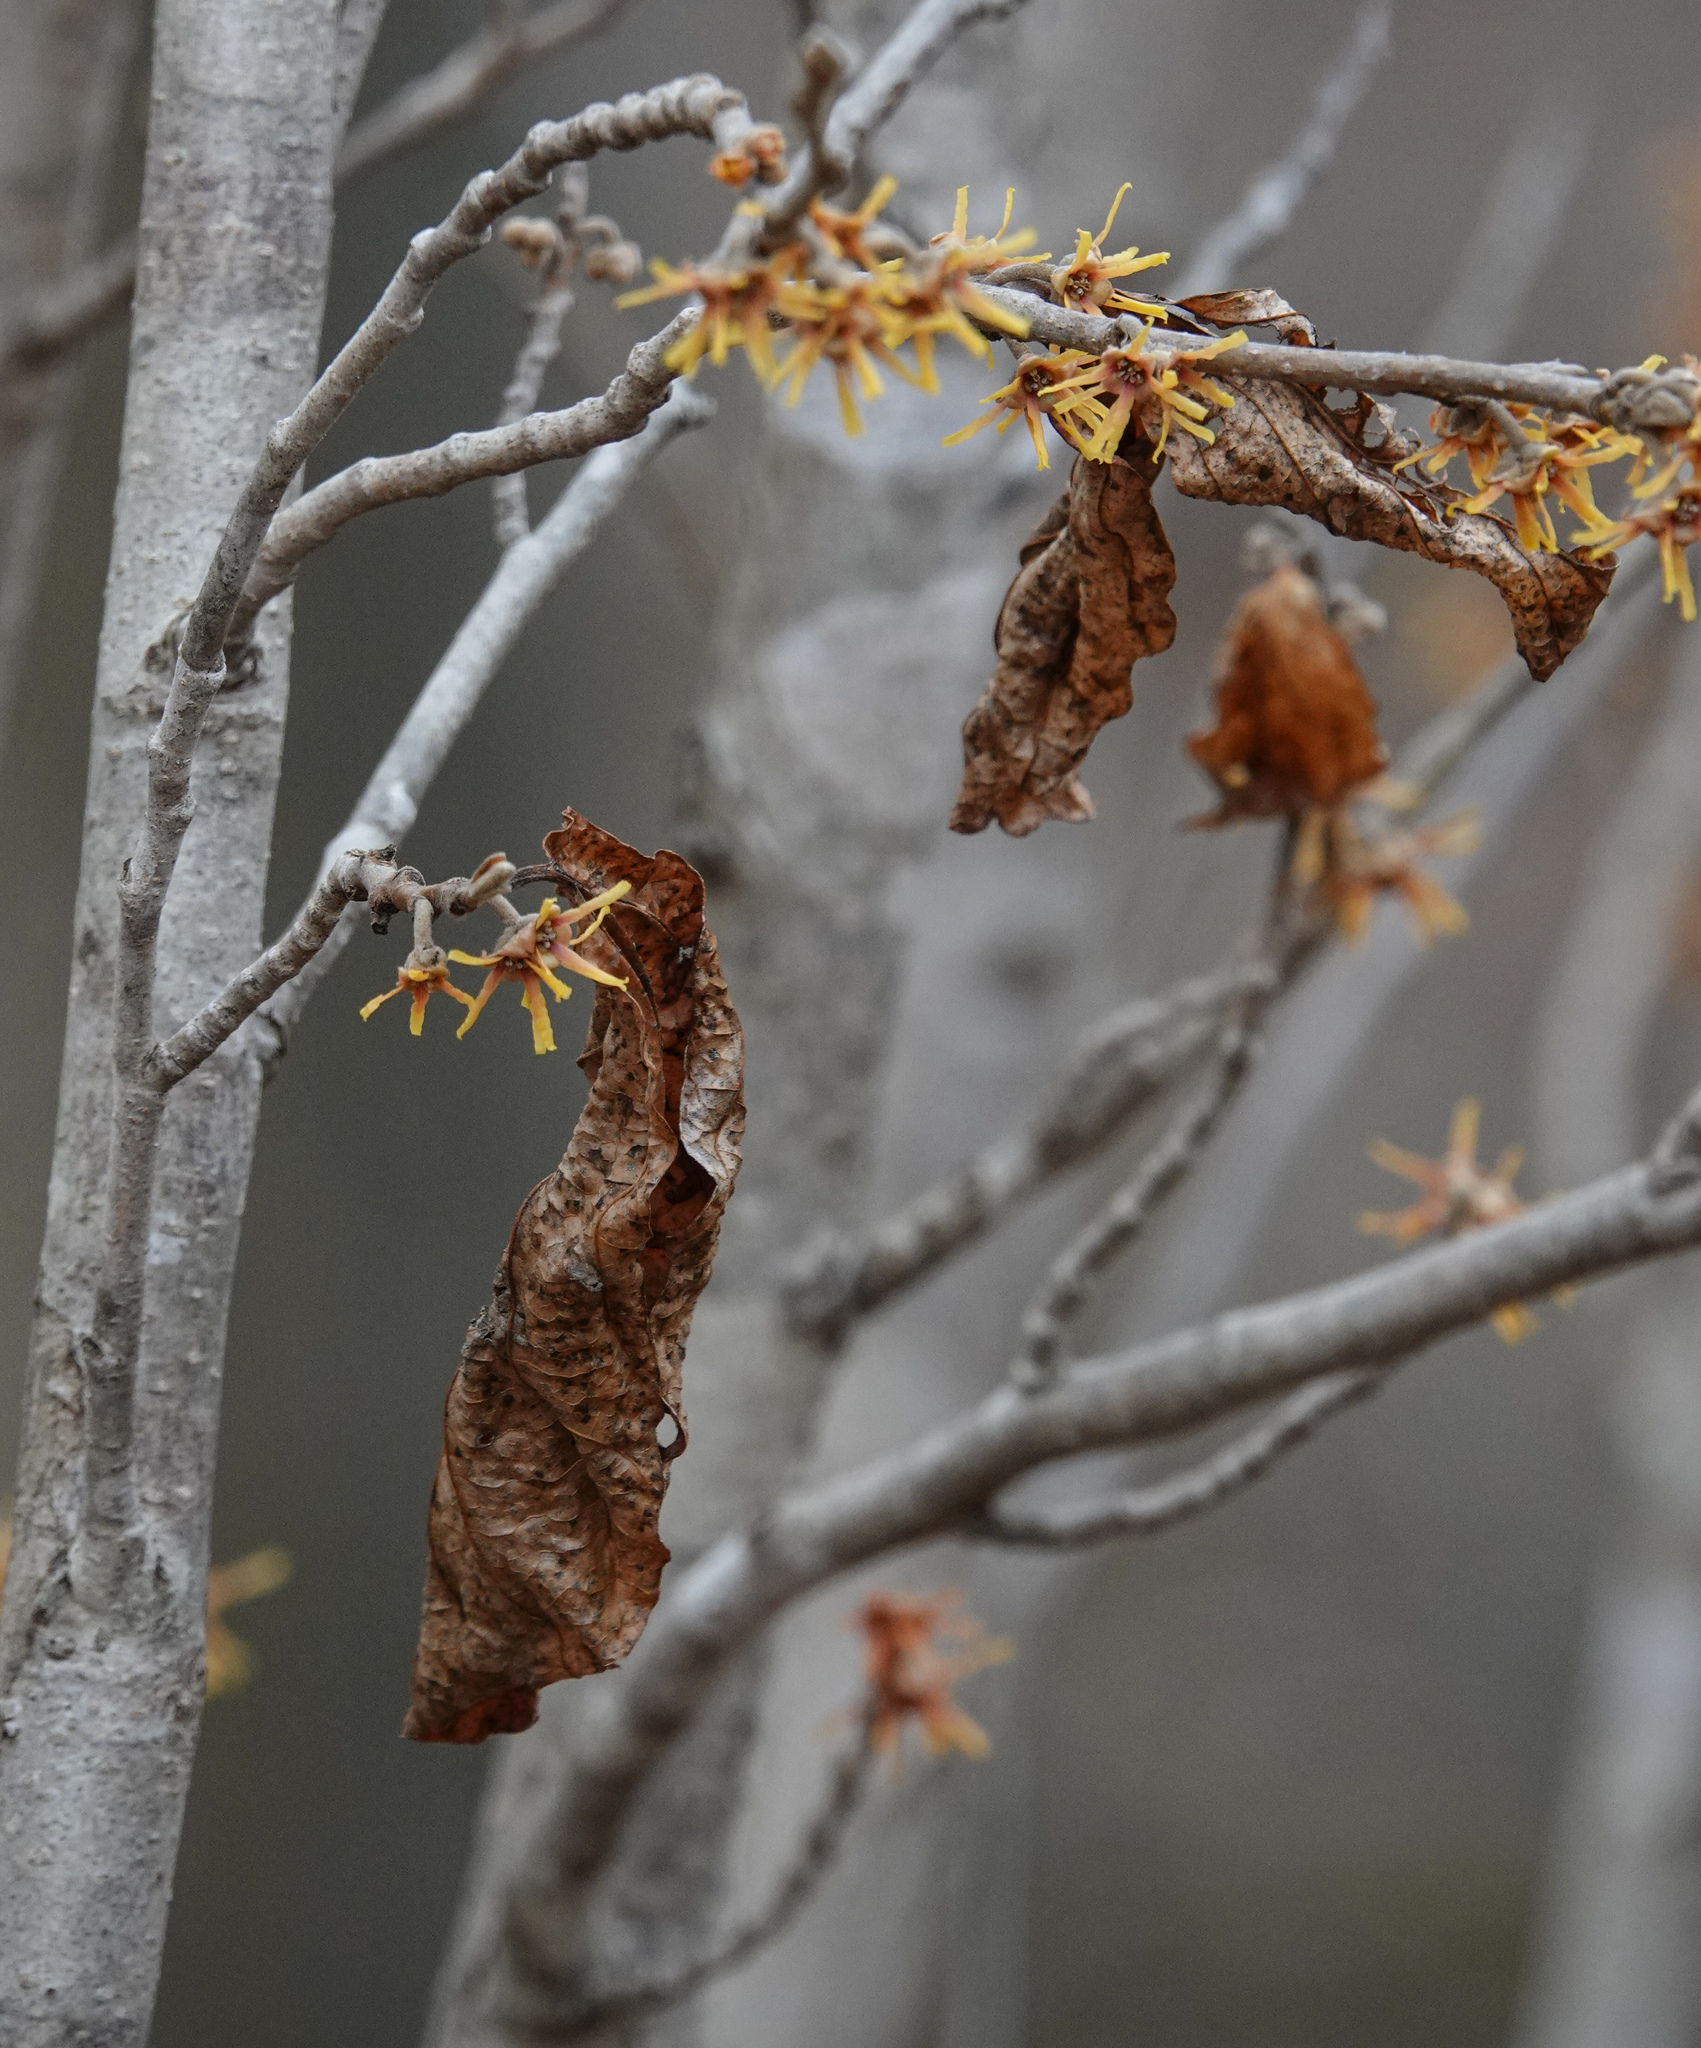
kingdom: Plantae
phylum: Tracheophyta
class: Magnoliopsida
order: Saxifragales
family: Hamamelidaceae
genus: Hamamelis
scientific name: Hamamelis mollis
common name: Chinese witch-hazel
